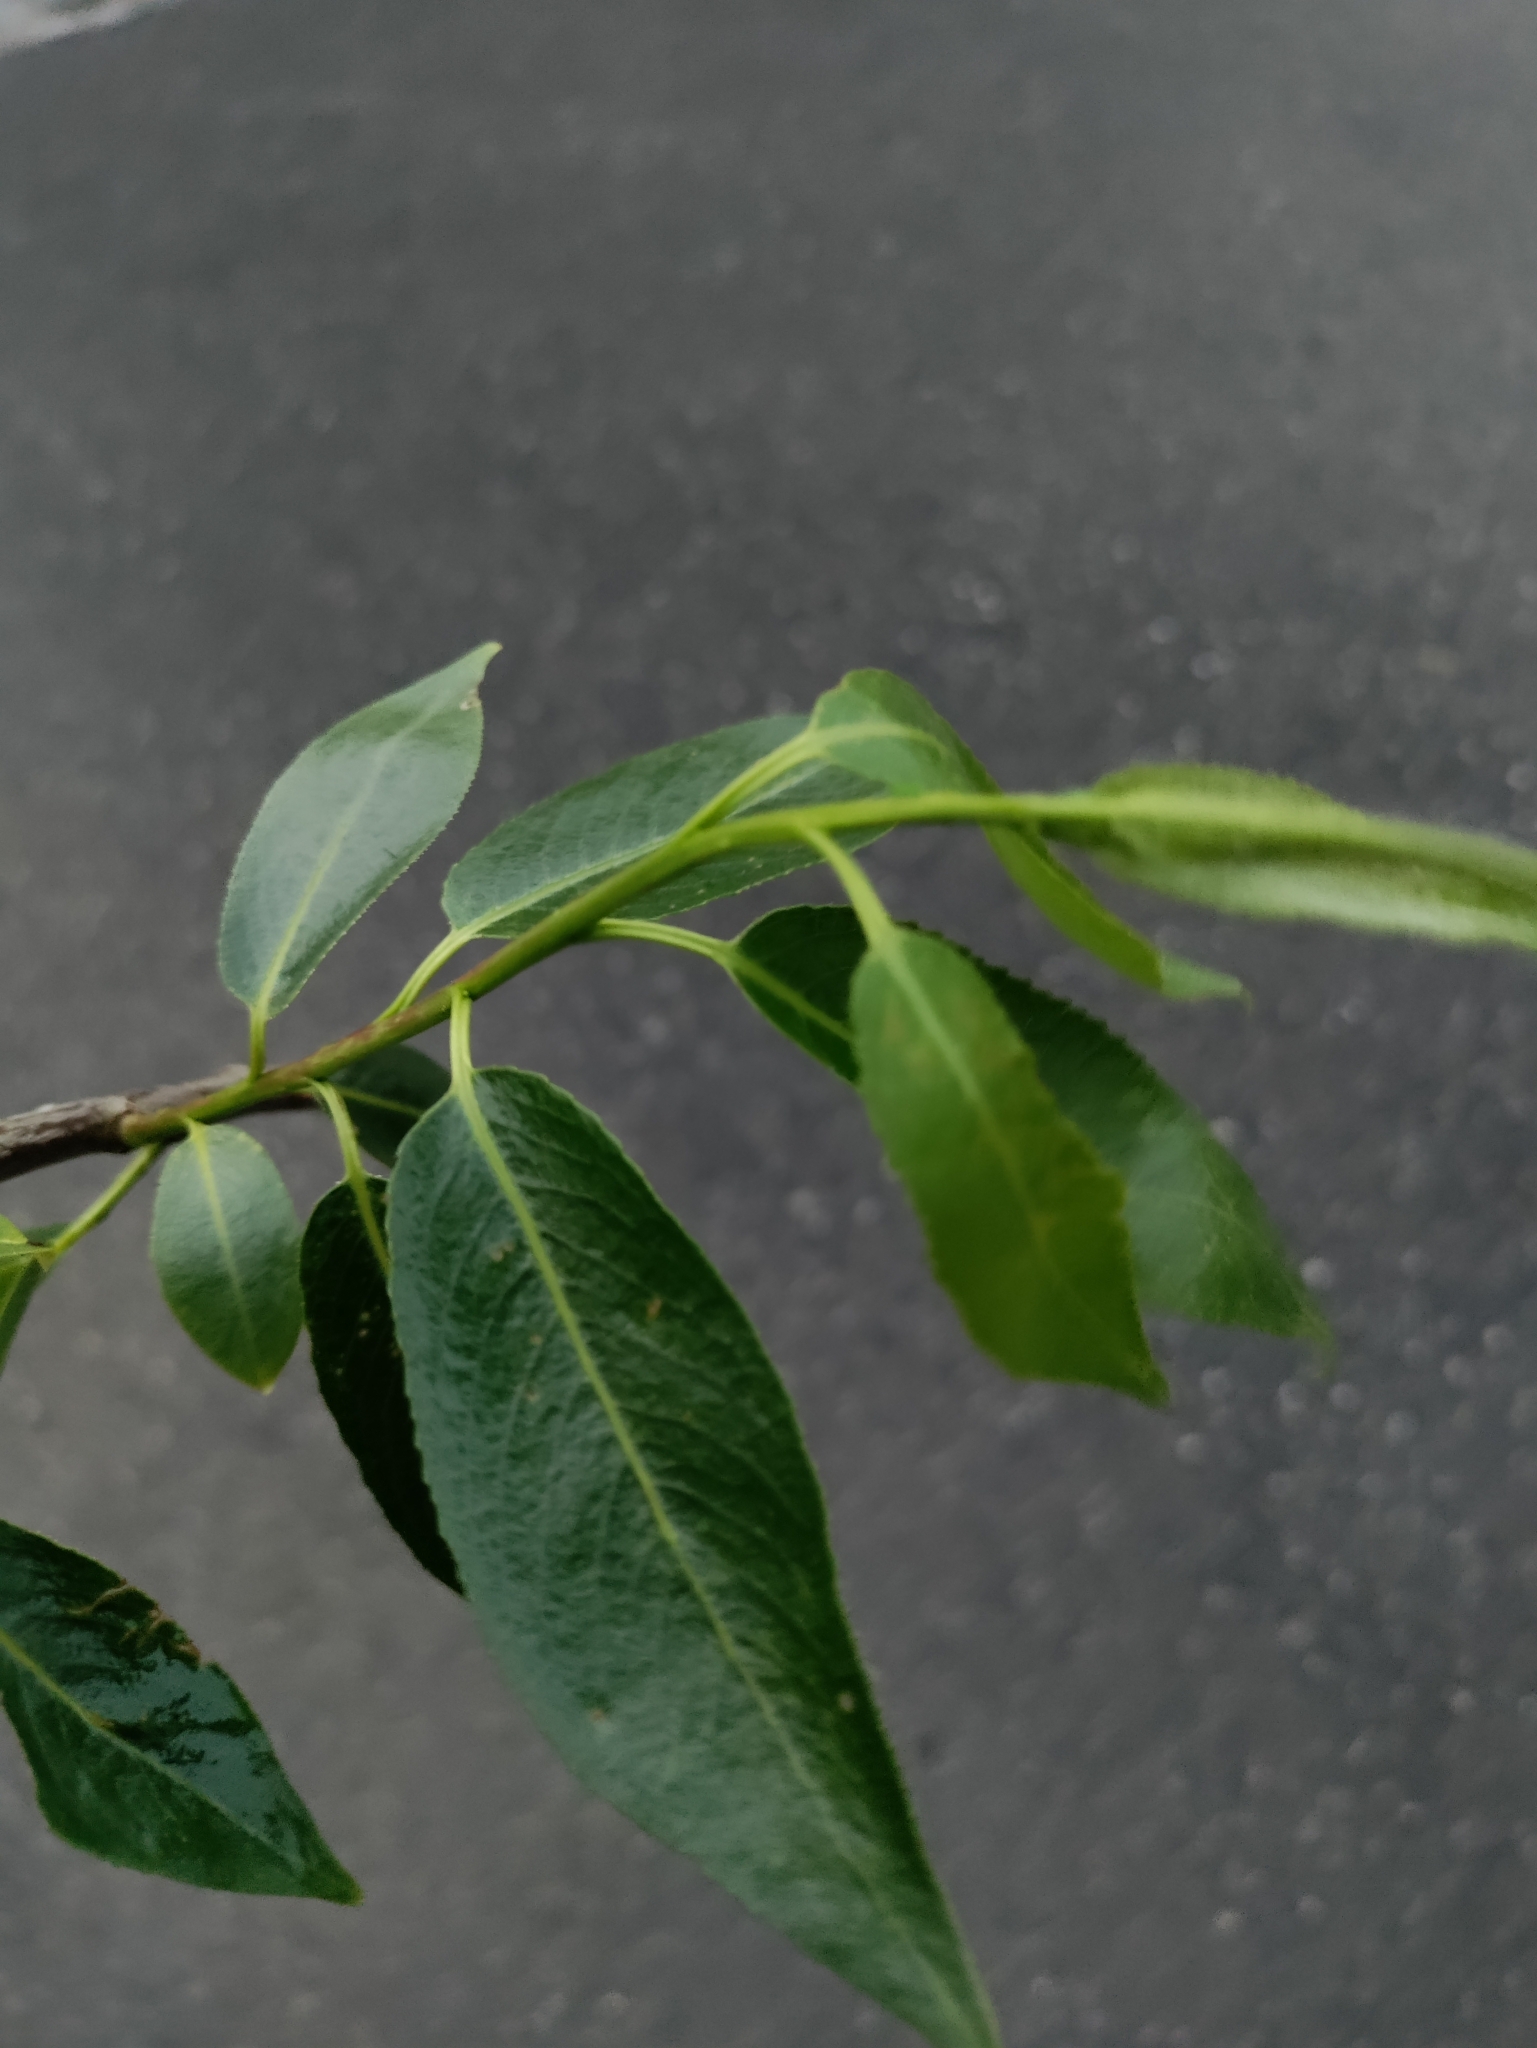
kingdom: Plantae
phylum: Tracheophyta
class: Magnoliopsida
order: Malpighiales
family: Salicaceae
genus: Salix
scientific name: Salix fragilis
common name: Crack willow
